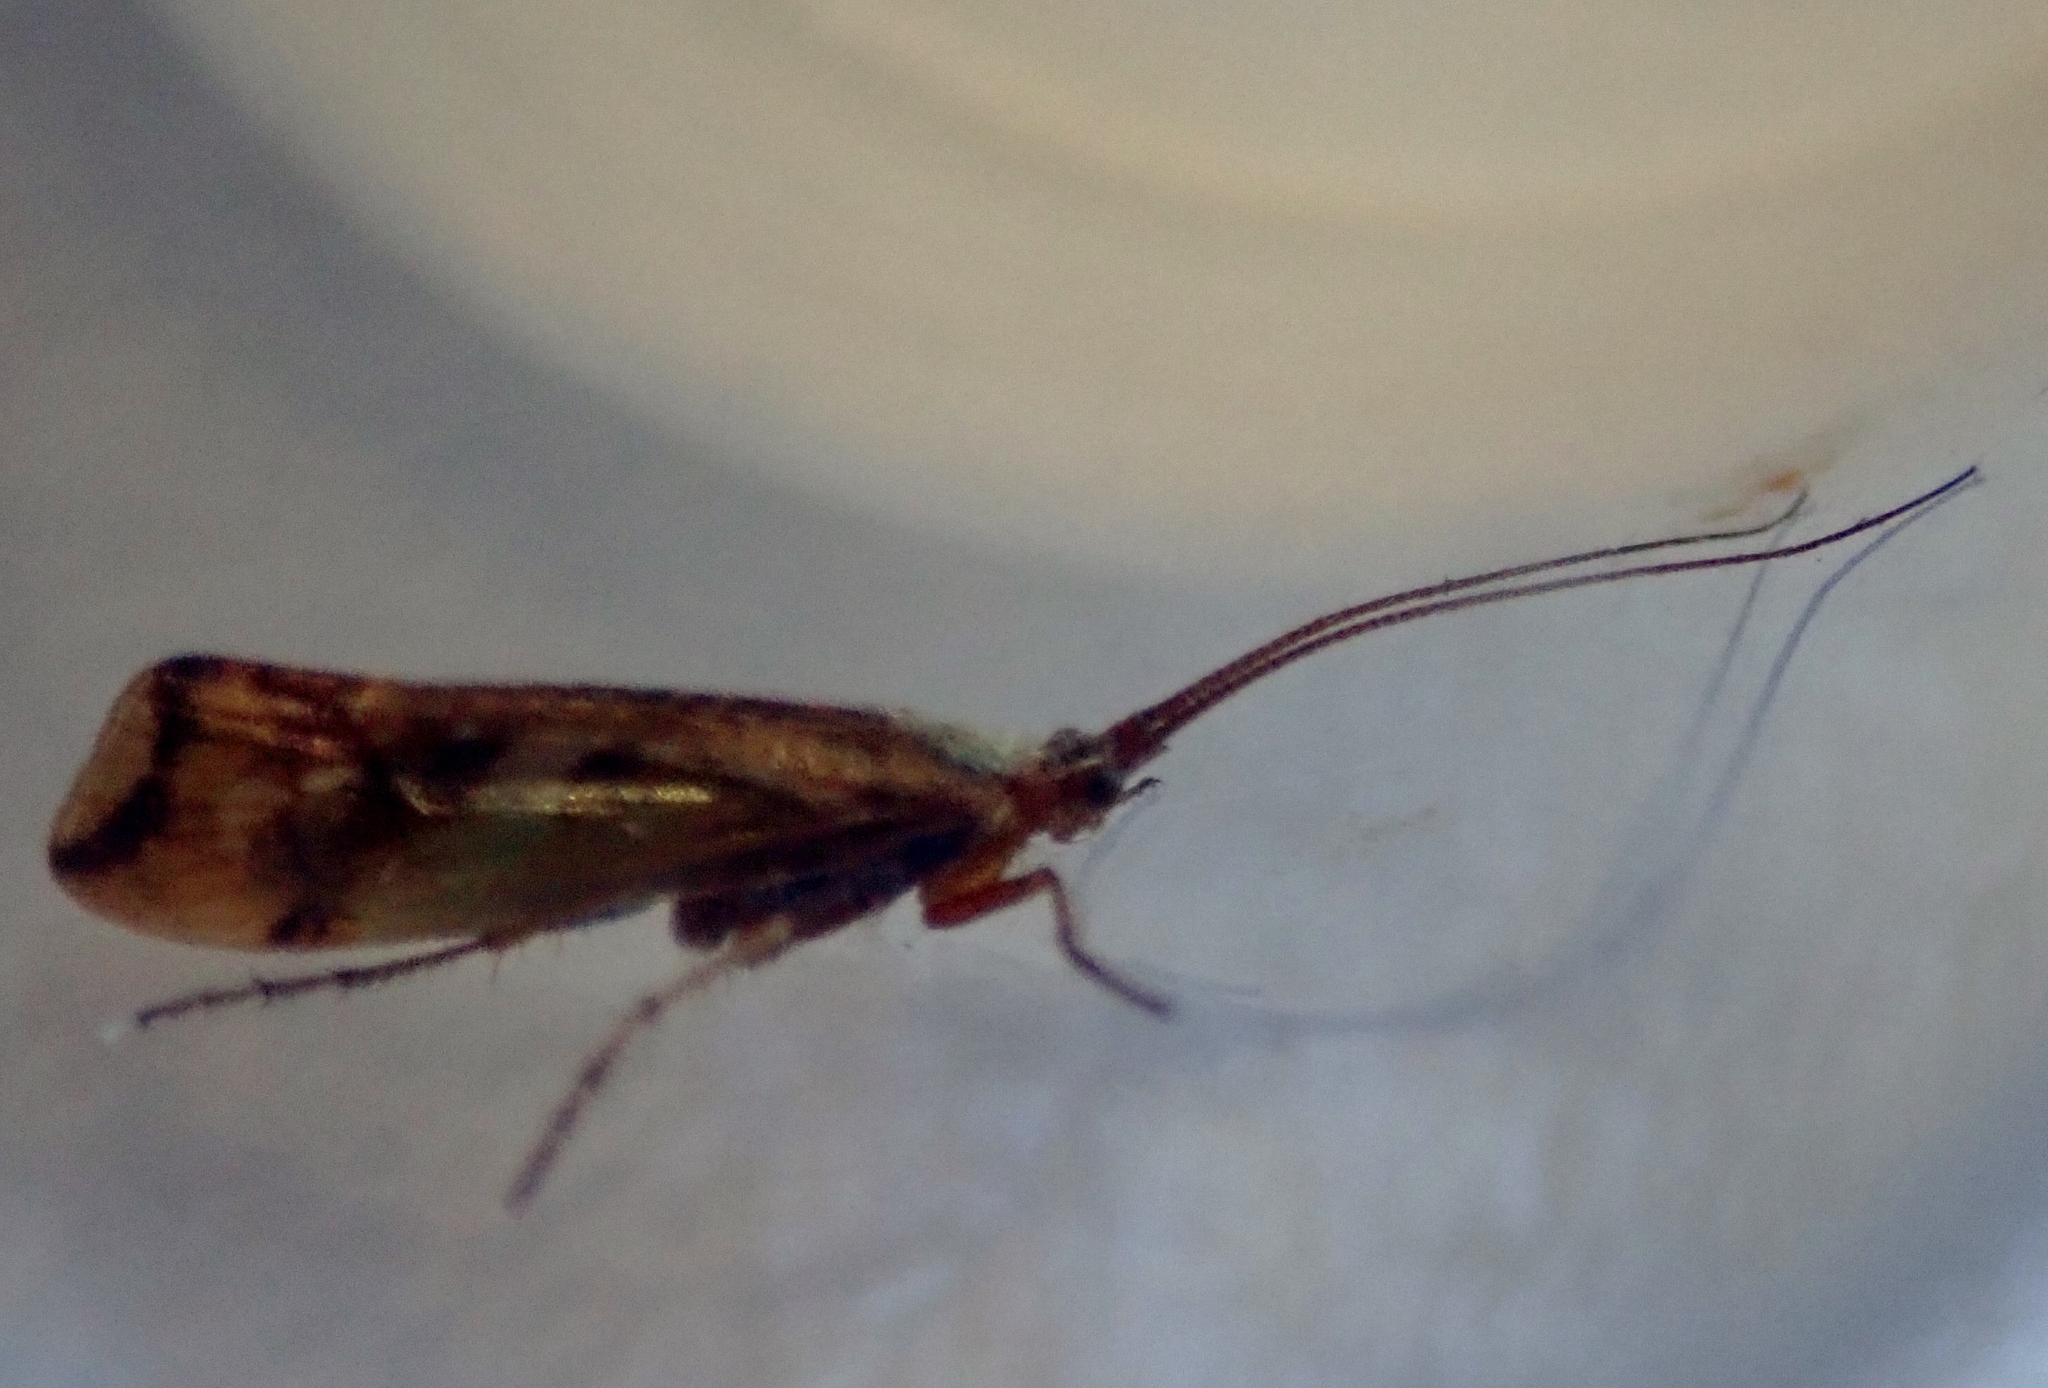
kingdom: Animalia
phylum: Arthropoda
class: Insecta
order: Trichoptera
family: Limnephilidae
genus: Limnephilus
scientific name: Limnephilus lunatus
